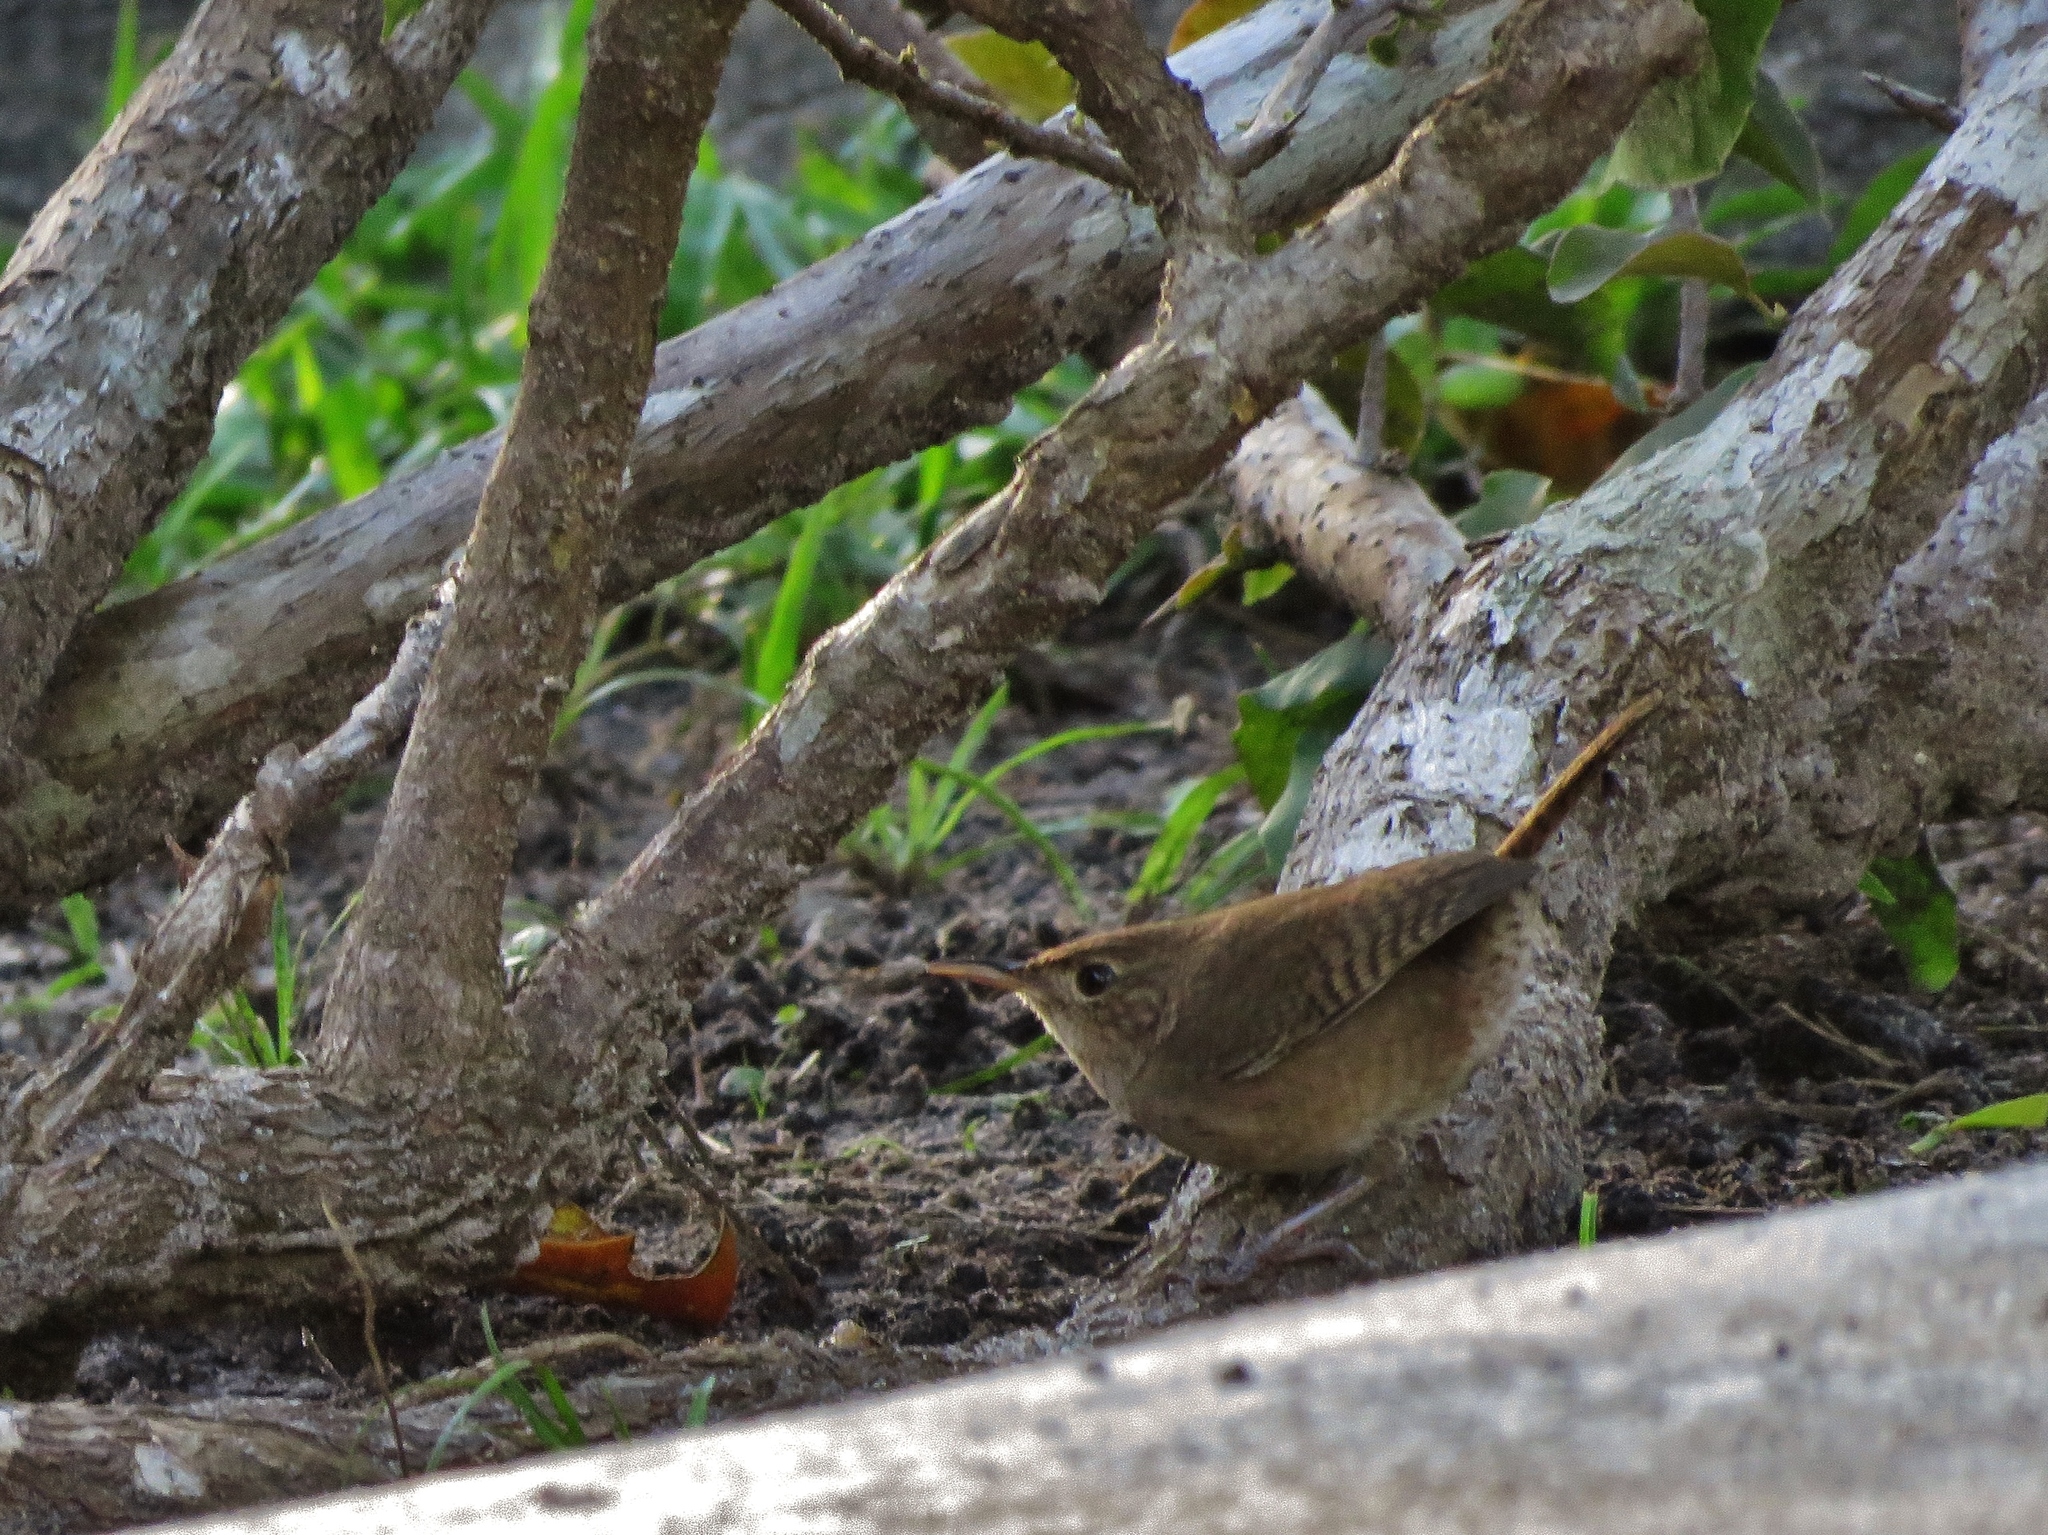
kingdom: Animalia
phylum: Chordata
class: Aves
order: Passeriformes
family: Troglodytidae
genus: Troglodytes
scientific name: Troglodytes aedon
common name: House wren
